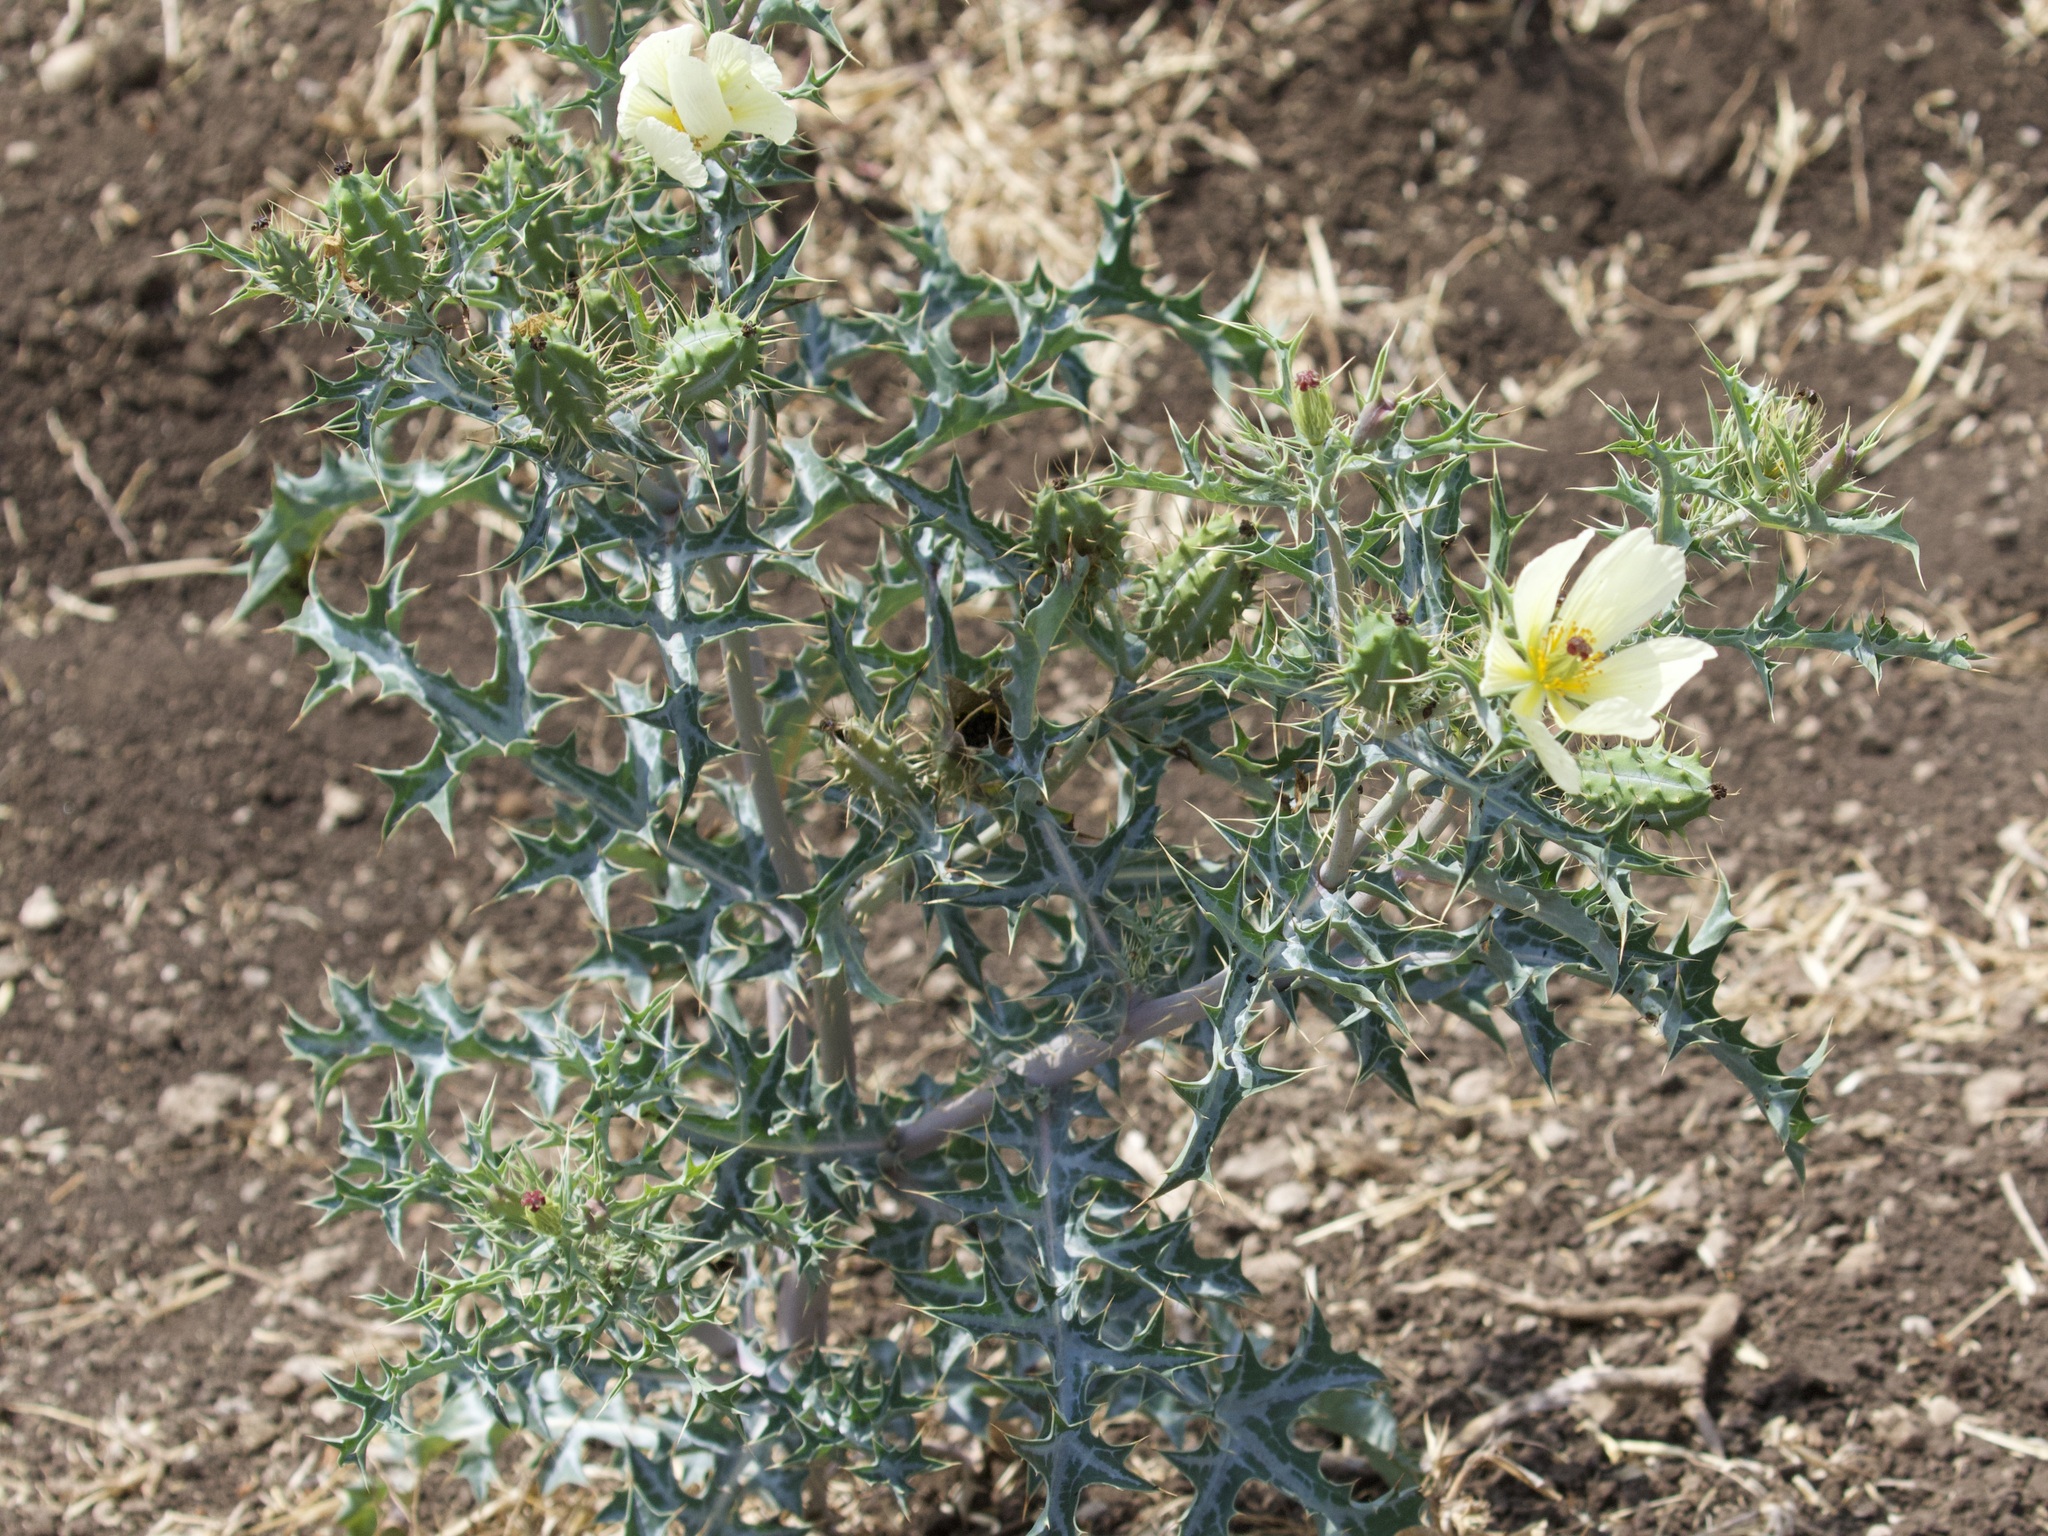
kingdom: Plantae
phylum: Tracheophyta
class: Magnoliopsida
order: Ranunculales
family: Papaveraceae
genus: Argemone
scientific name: Argemone ochroleuca
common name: White-flower mexican-poppy
